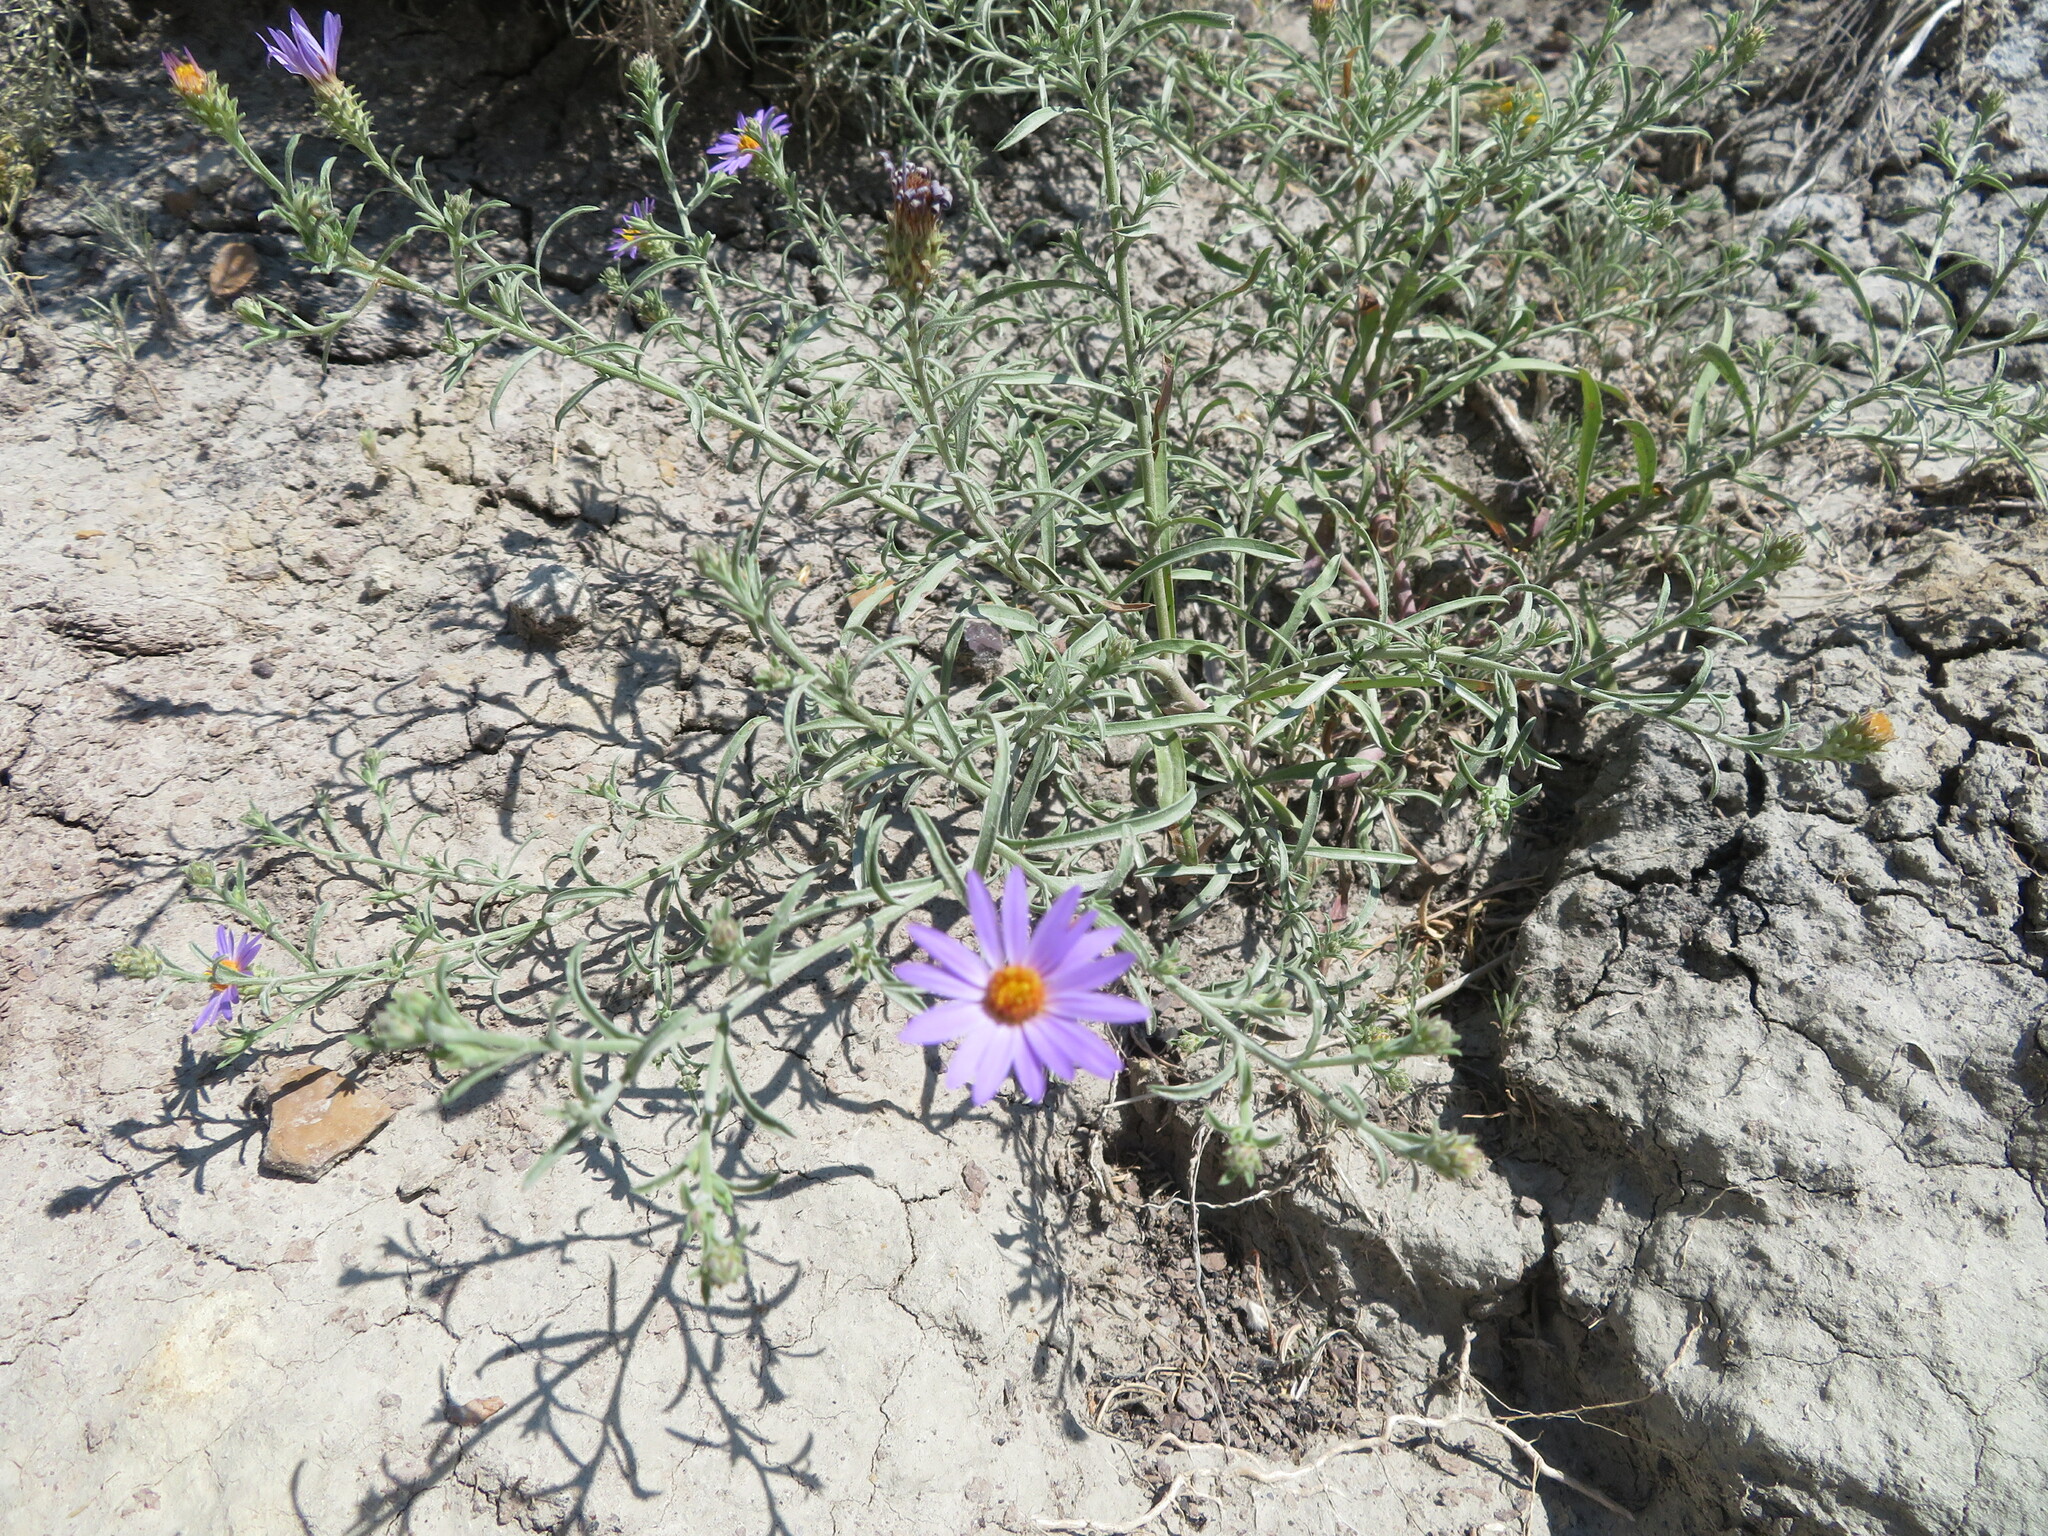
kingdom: Plantae
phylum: Tracheophyta
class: Magnoliopsida
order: Asterales
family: Asteraceae
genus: Dieteria
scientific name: Dieteria canescens
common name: Hoary-aster
